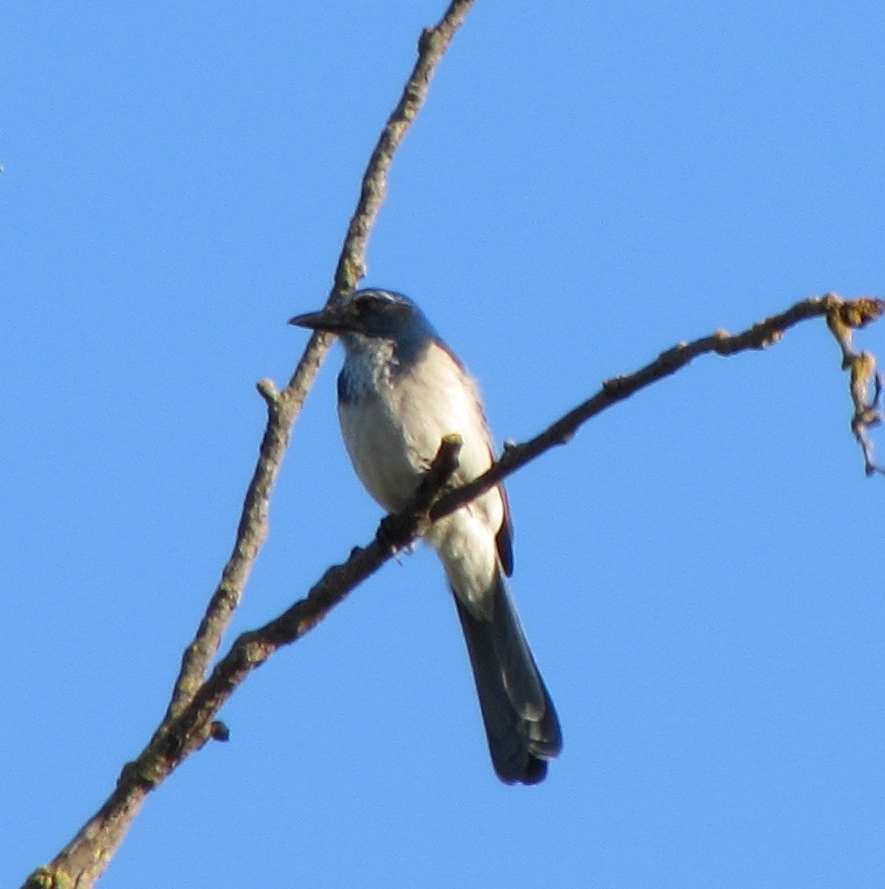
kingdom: Animalia
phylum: Chordata
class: Aves
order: Passeriformes
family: Corvidae
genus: Aphelocoma
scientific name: Aphelocoma californica
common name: California scrub-jay
